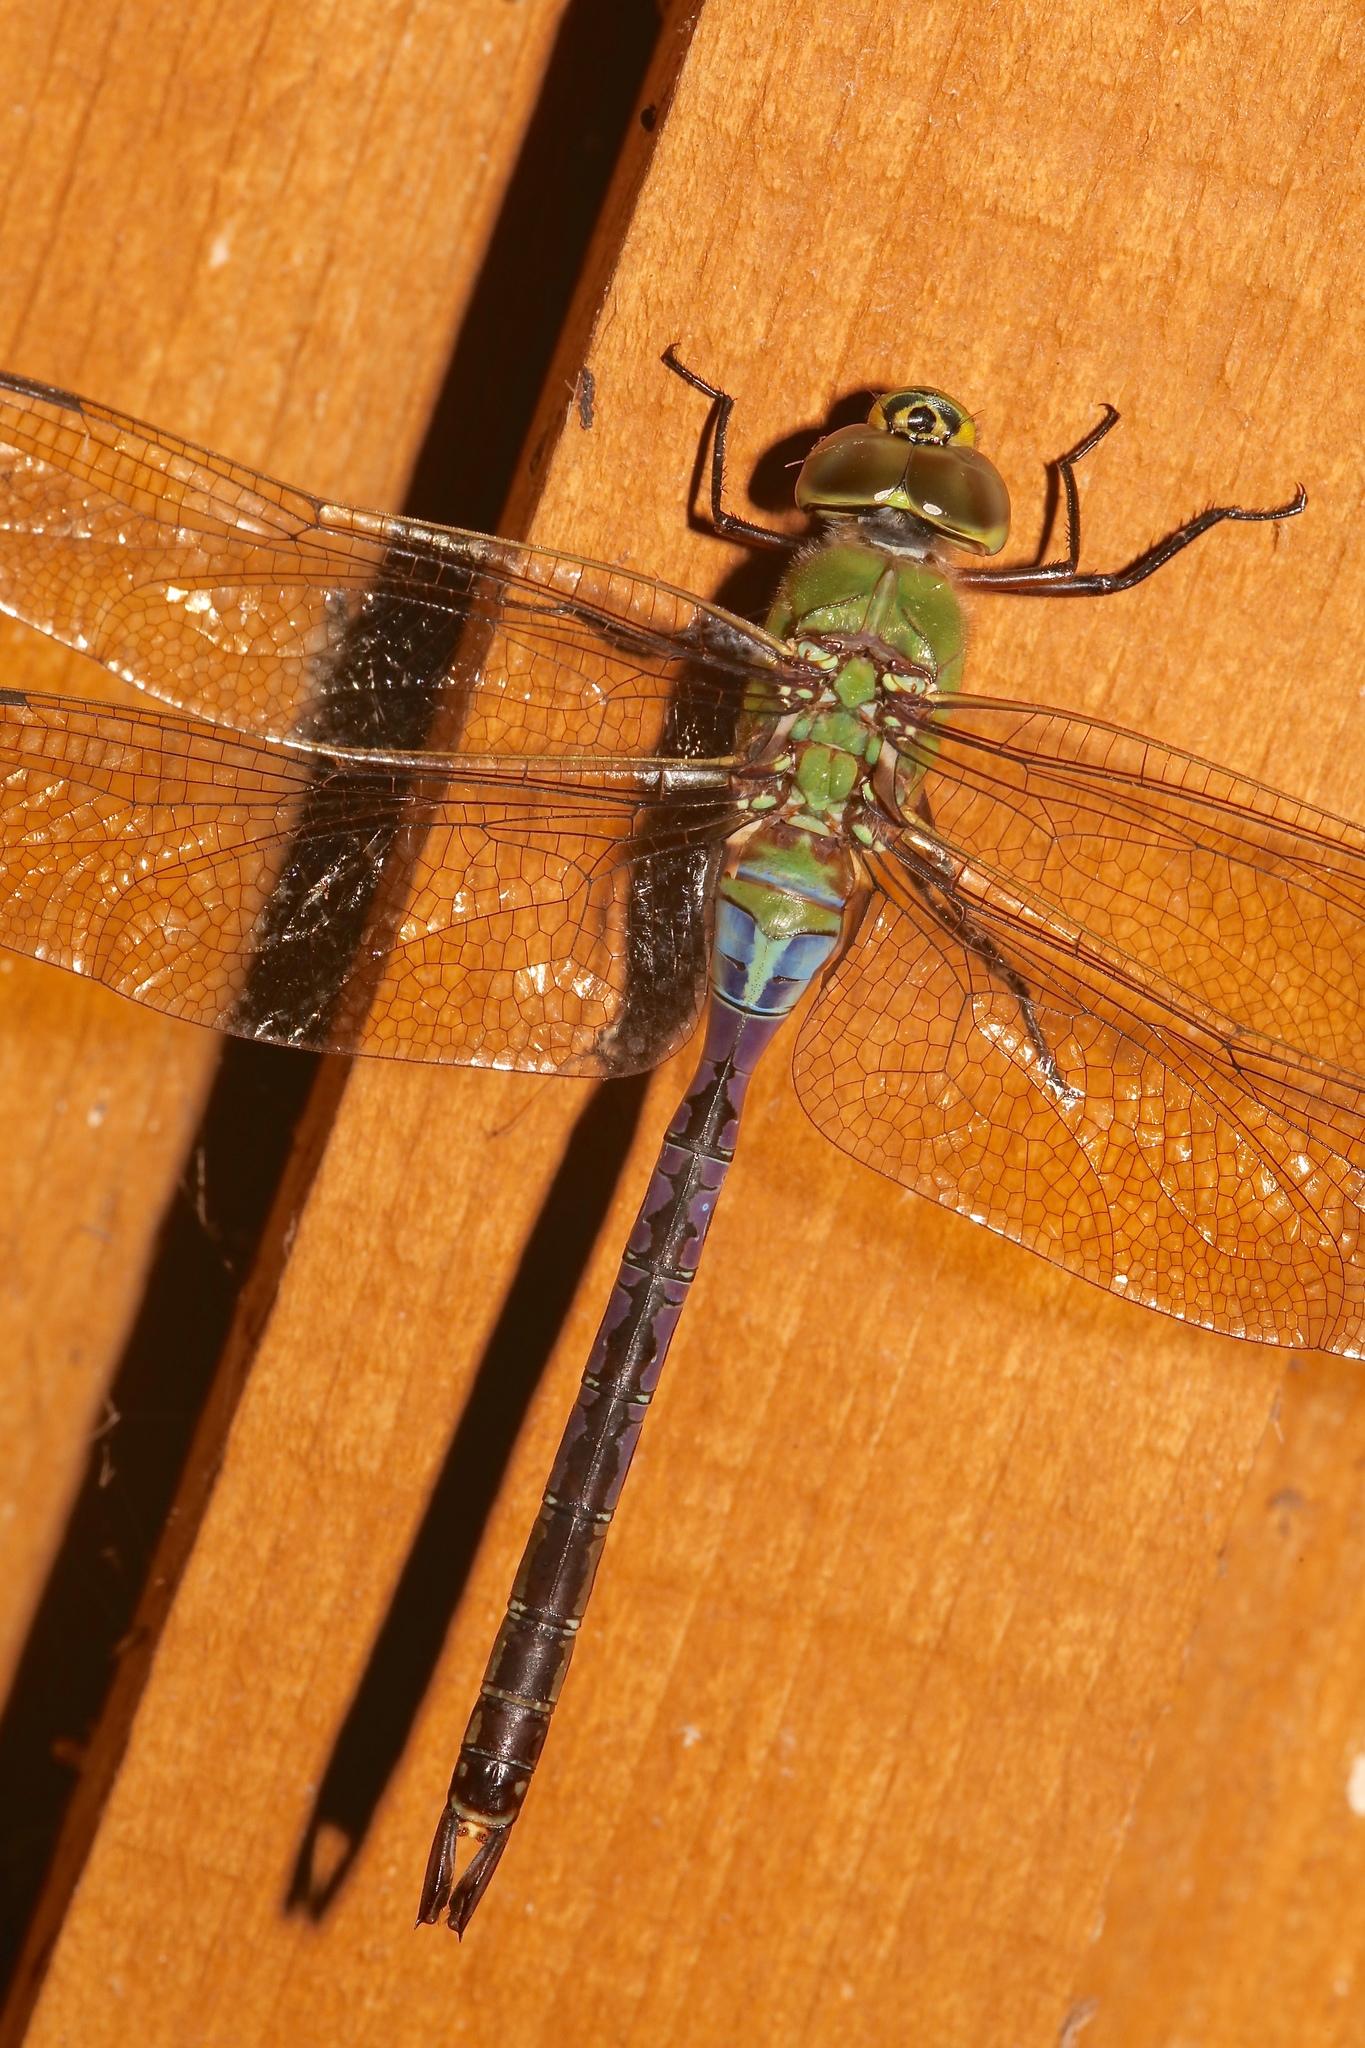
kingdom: Animalia
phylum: Arthropoda
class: Insecta
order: Odonata
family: Aeshnidae
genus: Anax
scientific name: Anax junius
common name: Common green darner
